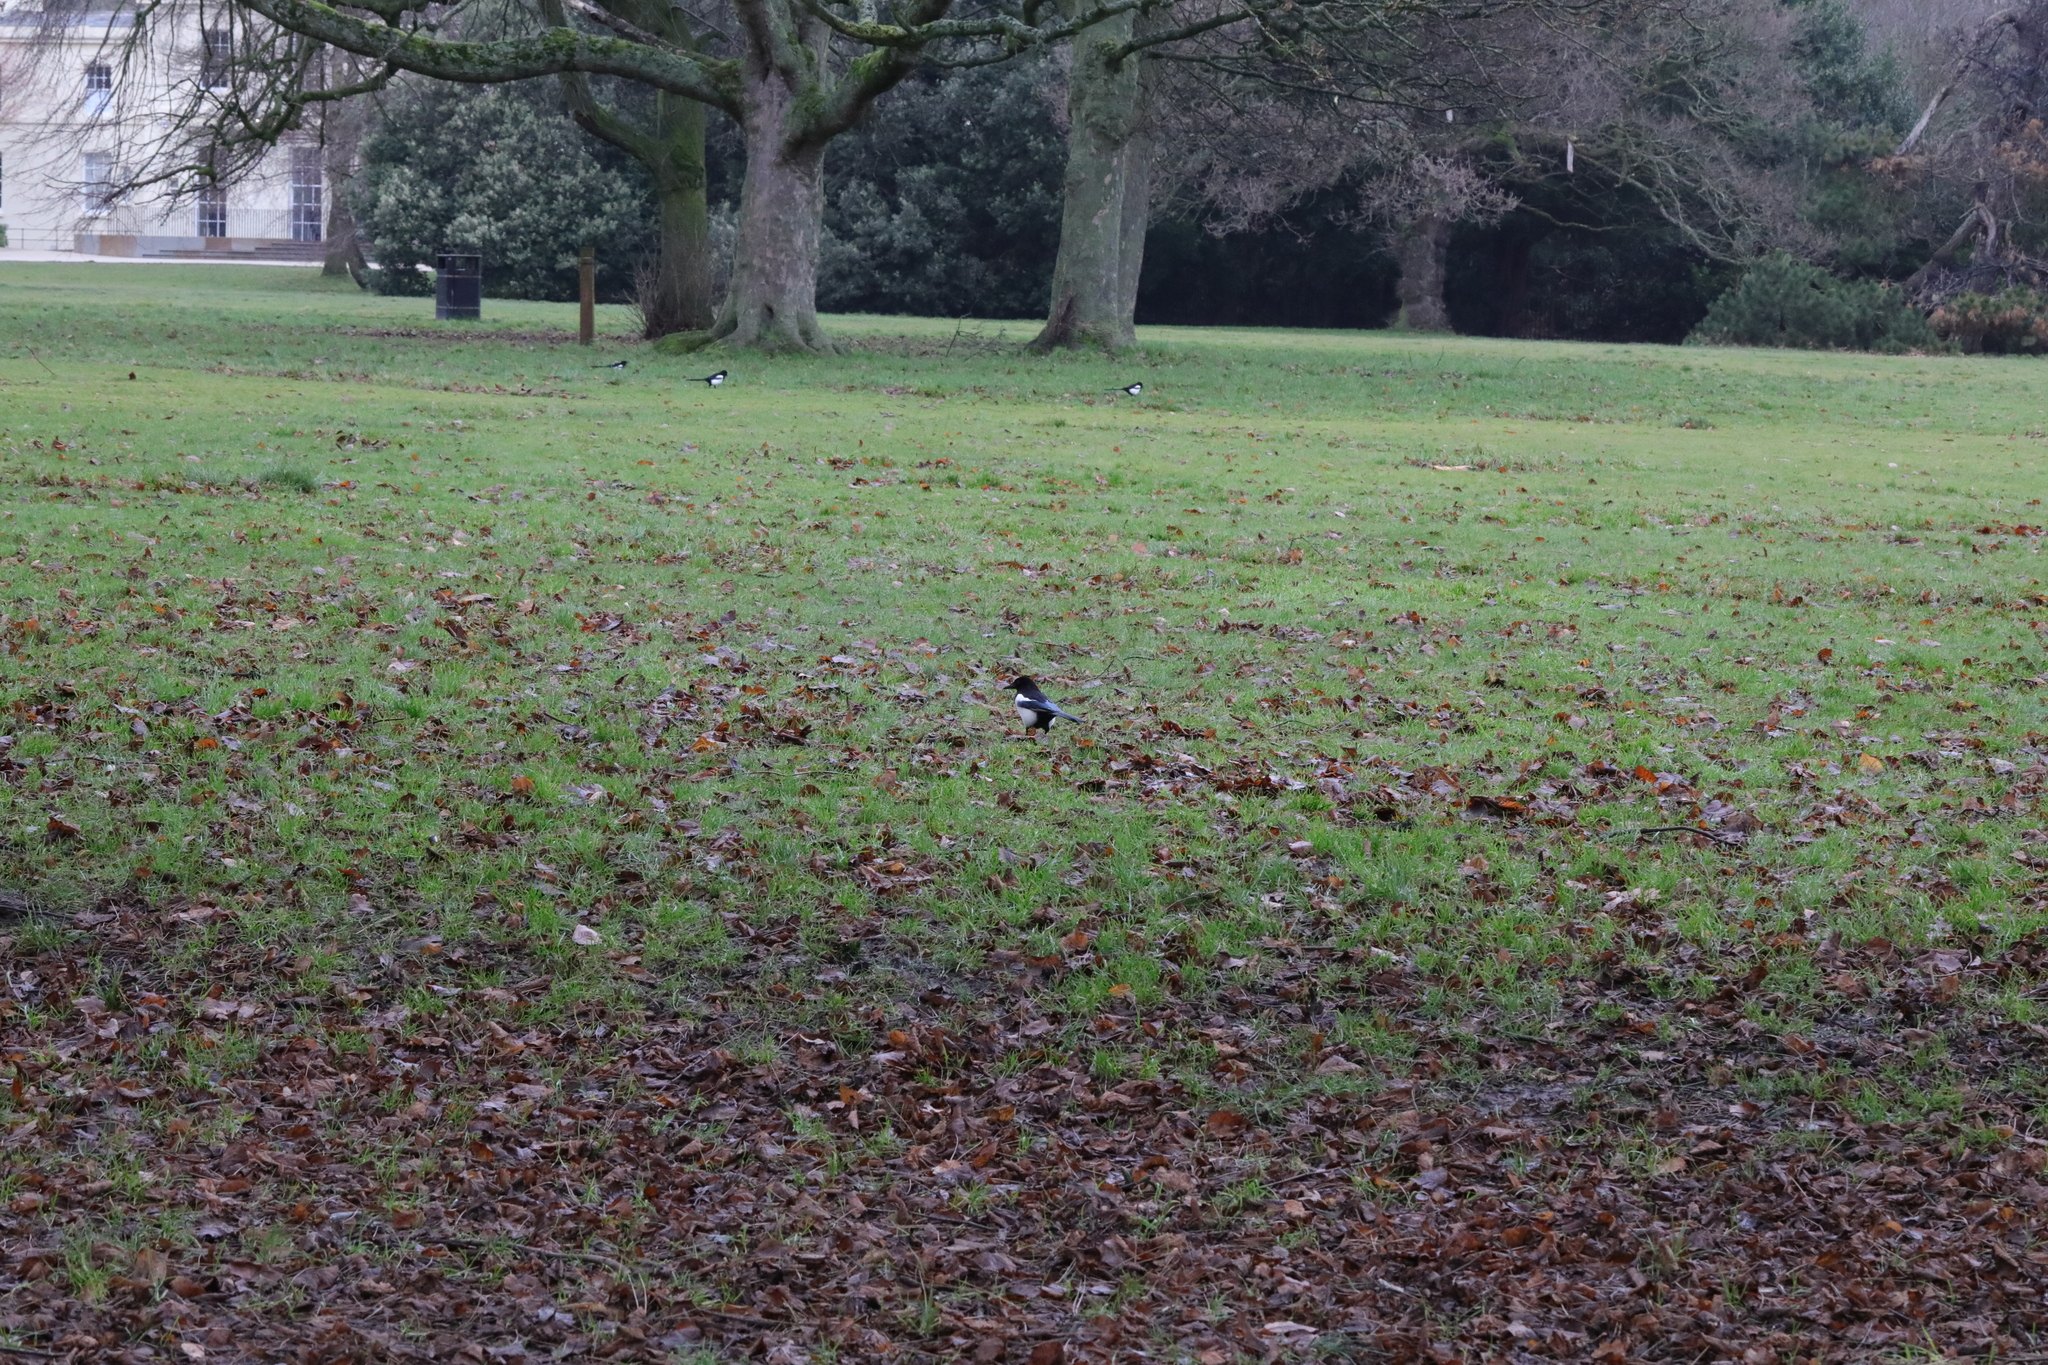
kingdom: Animalia
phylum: Chordata
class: Aves
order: Passeriformes
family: Corvidae
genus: Pica
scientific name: Pica pica
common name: Eurasian magpie
